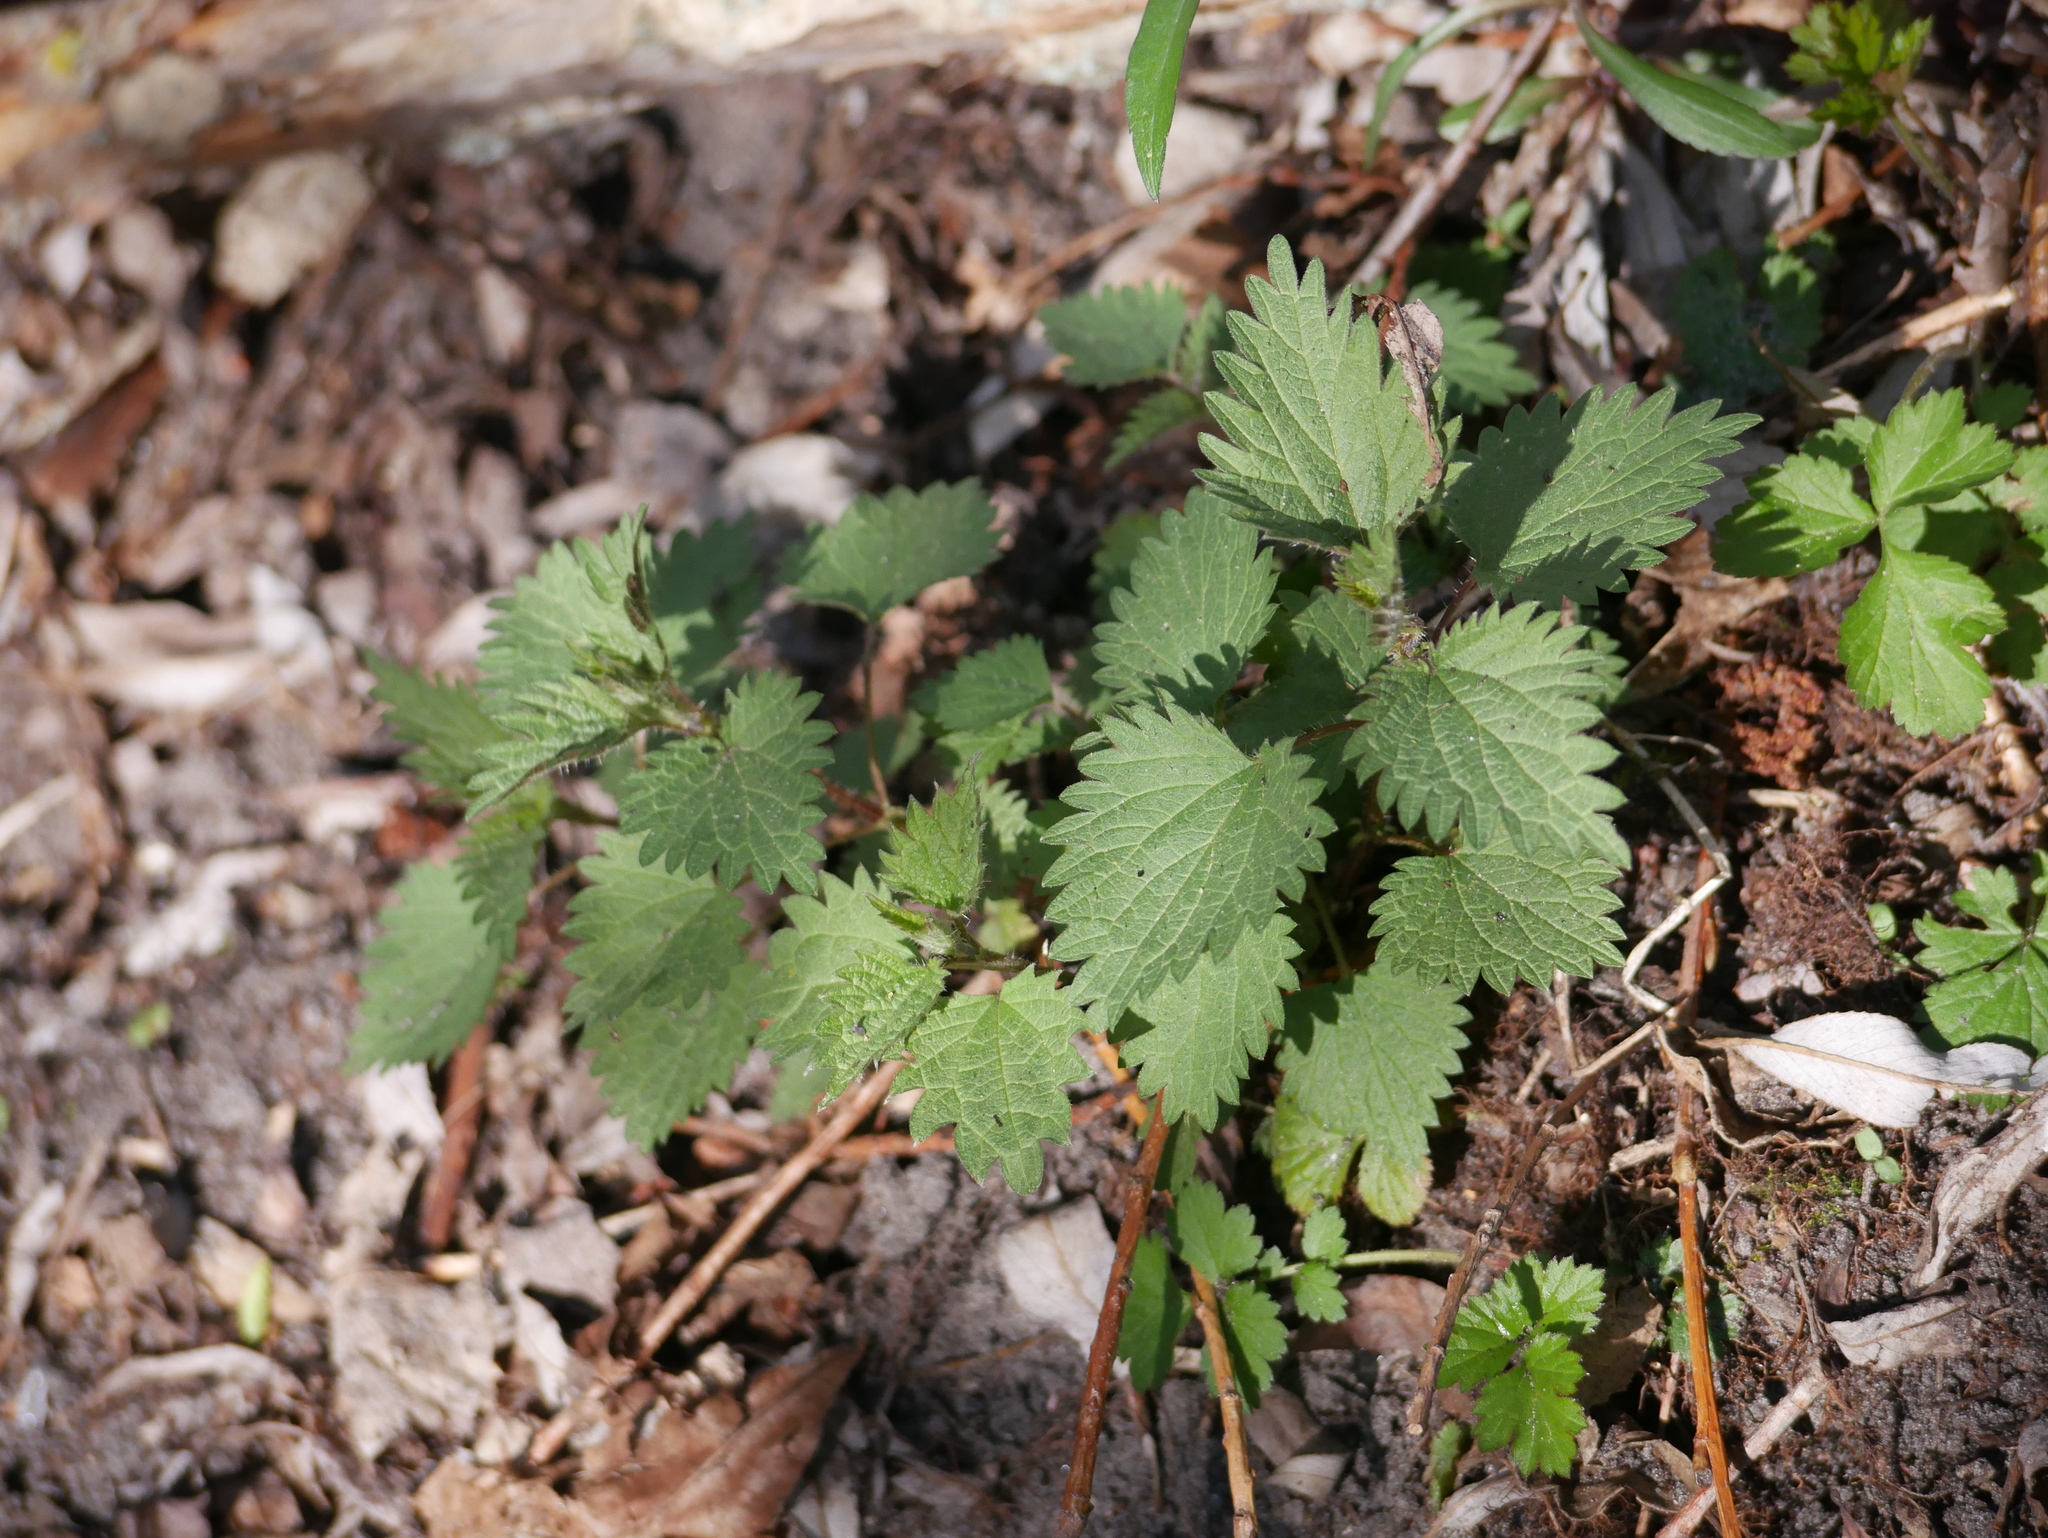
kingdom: Plantae
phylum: Tracheophyta
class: Magnoliopsida
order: Rosales
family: Urticaceae
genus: Urtica
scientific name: Urtica dioica
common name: Common nettle
